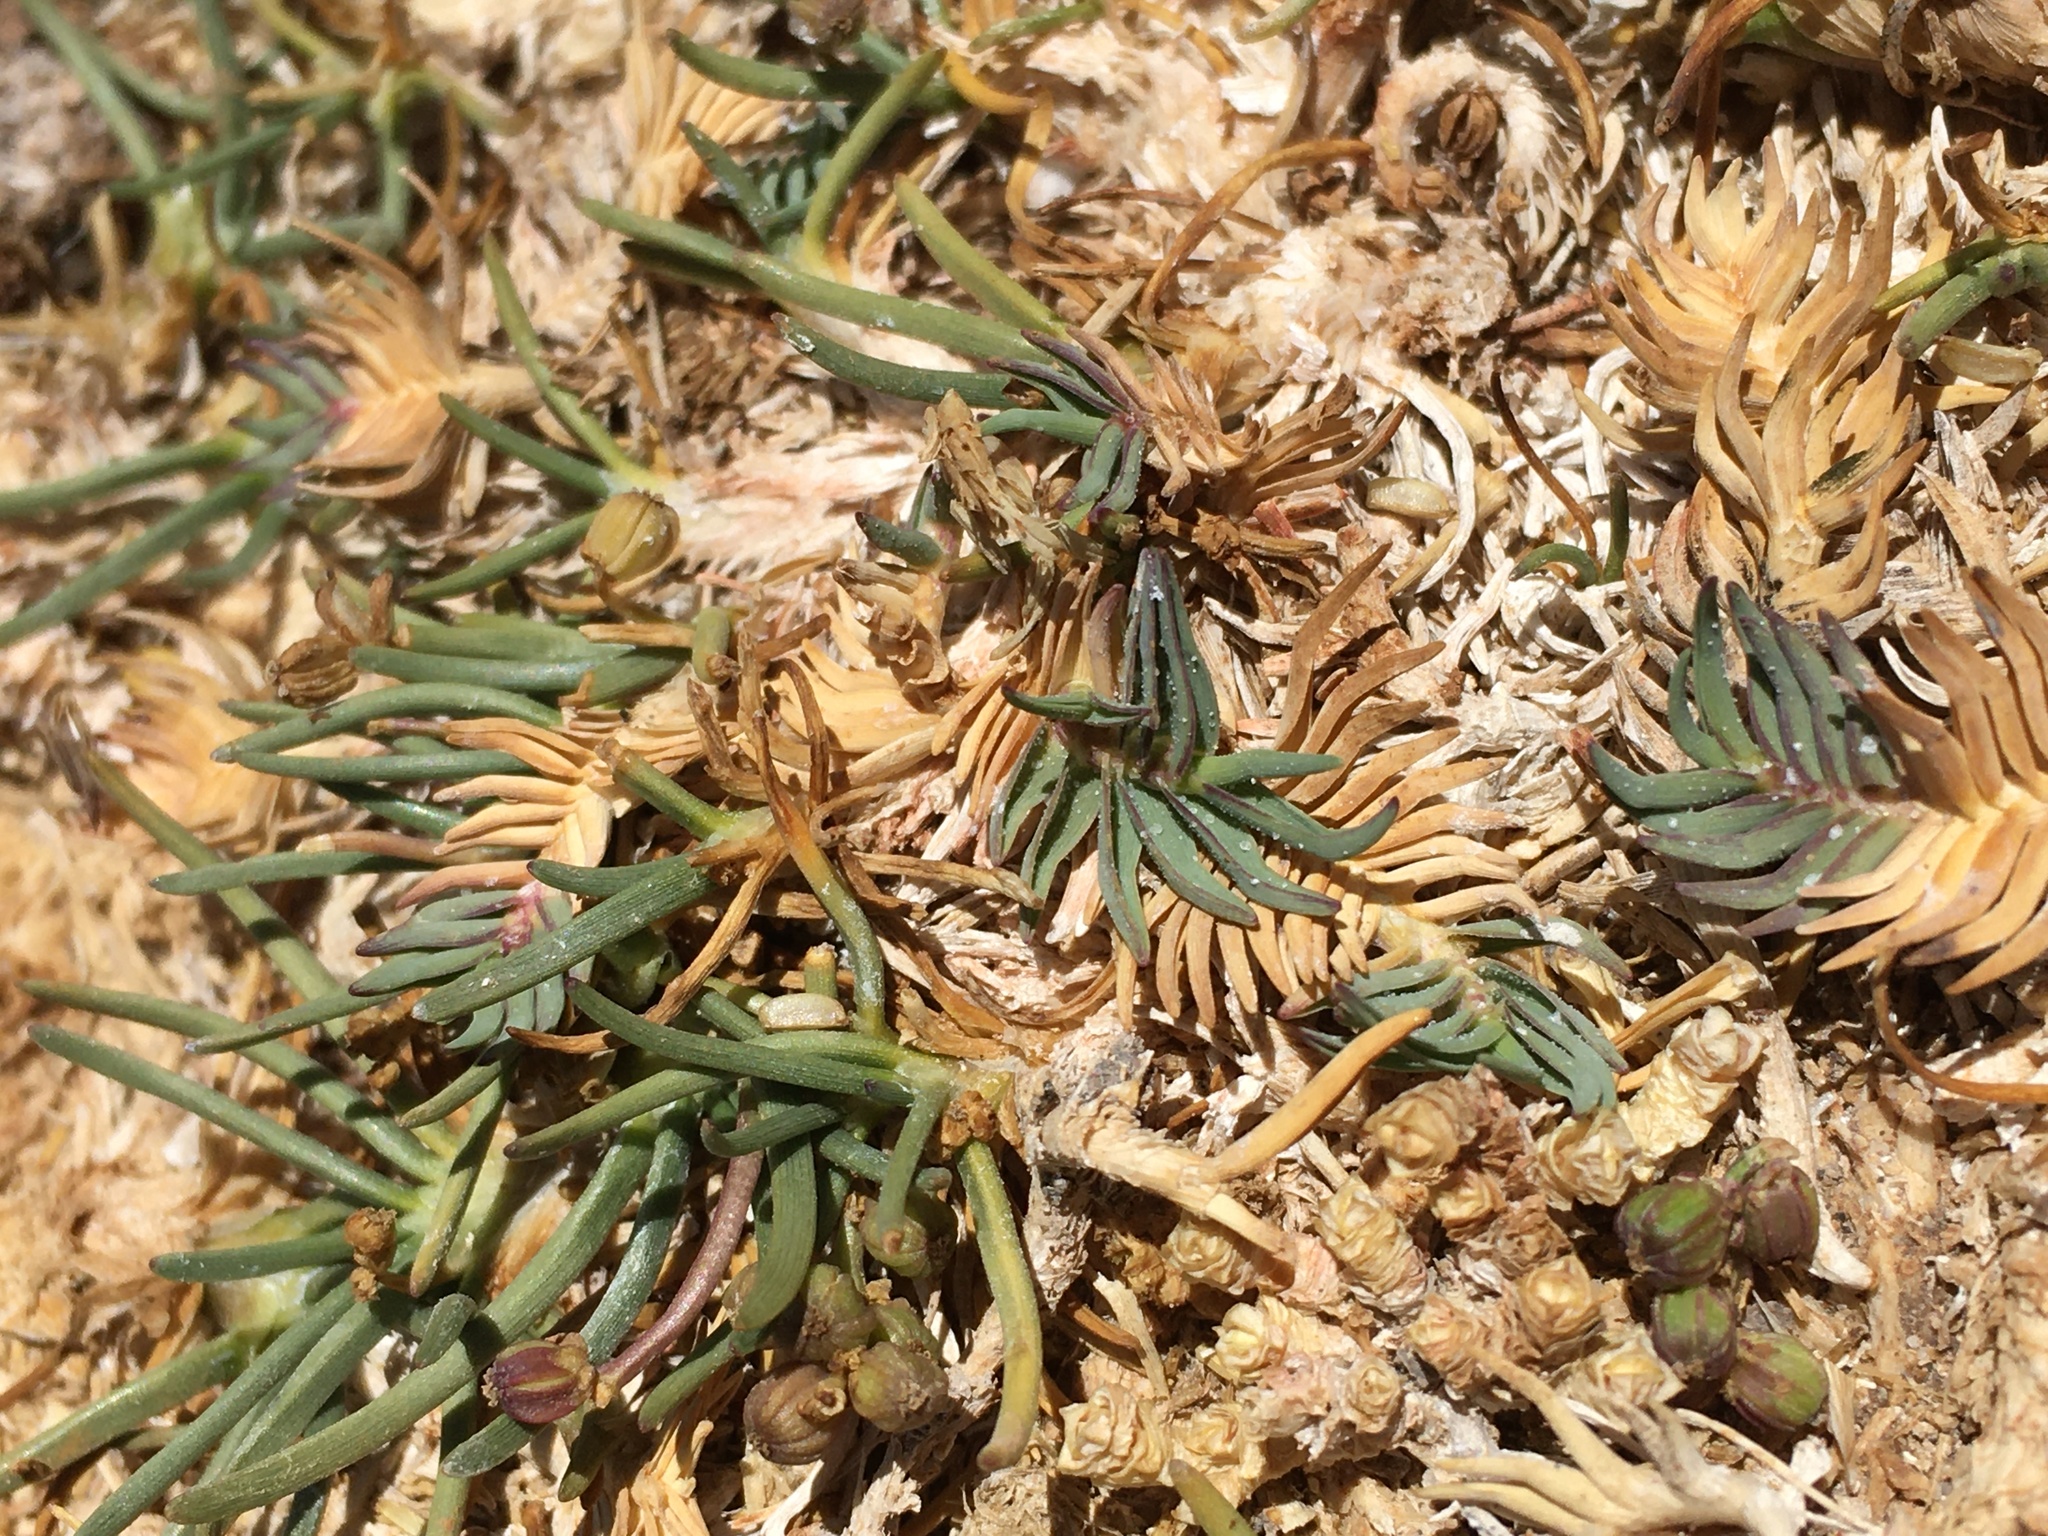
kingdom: Plantae
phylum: Tracheophyta
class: Liliopsida
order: Poales
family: Poaceae
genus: Distichlis
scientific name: Distichlis humilis
